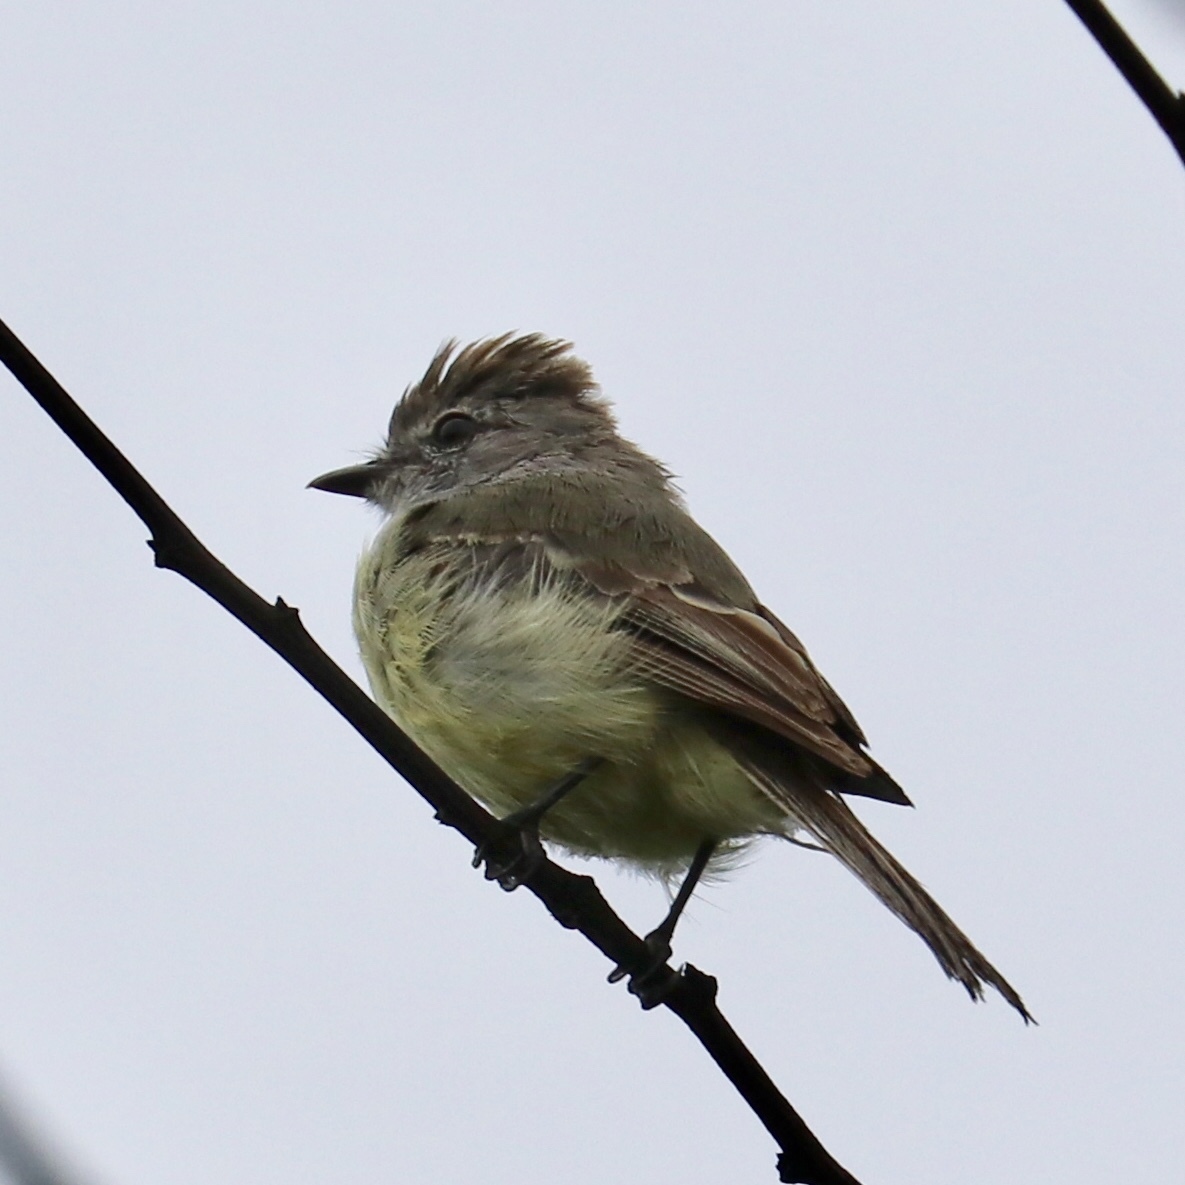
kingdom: Animalia
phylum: Chordata
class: Aves
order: Passeriformes
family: Tyrannidae
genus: Sublegatus
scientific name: Sublegatus arenarum
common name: Northern scrub-flycatcher
